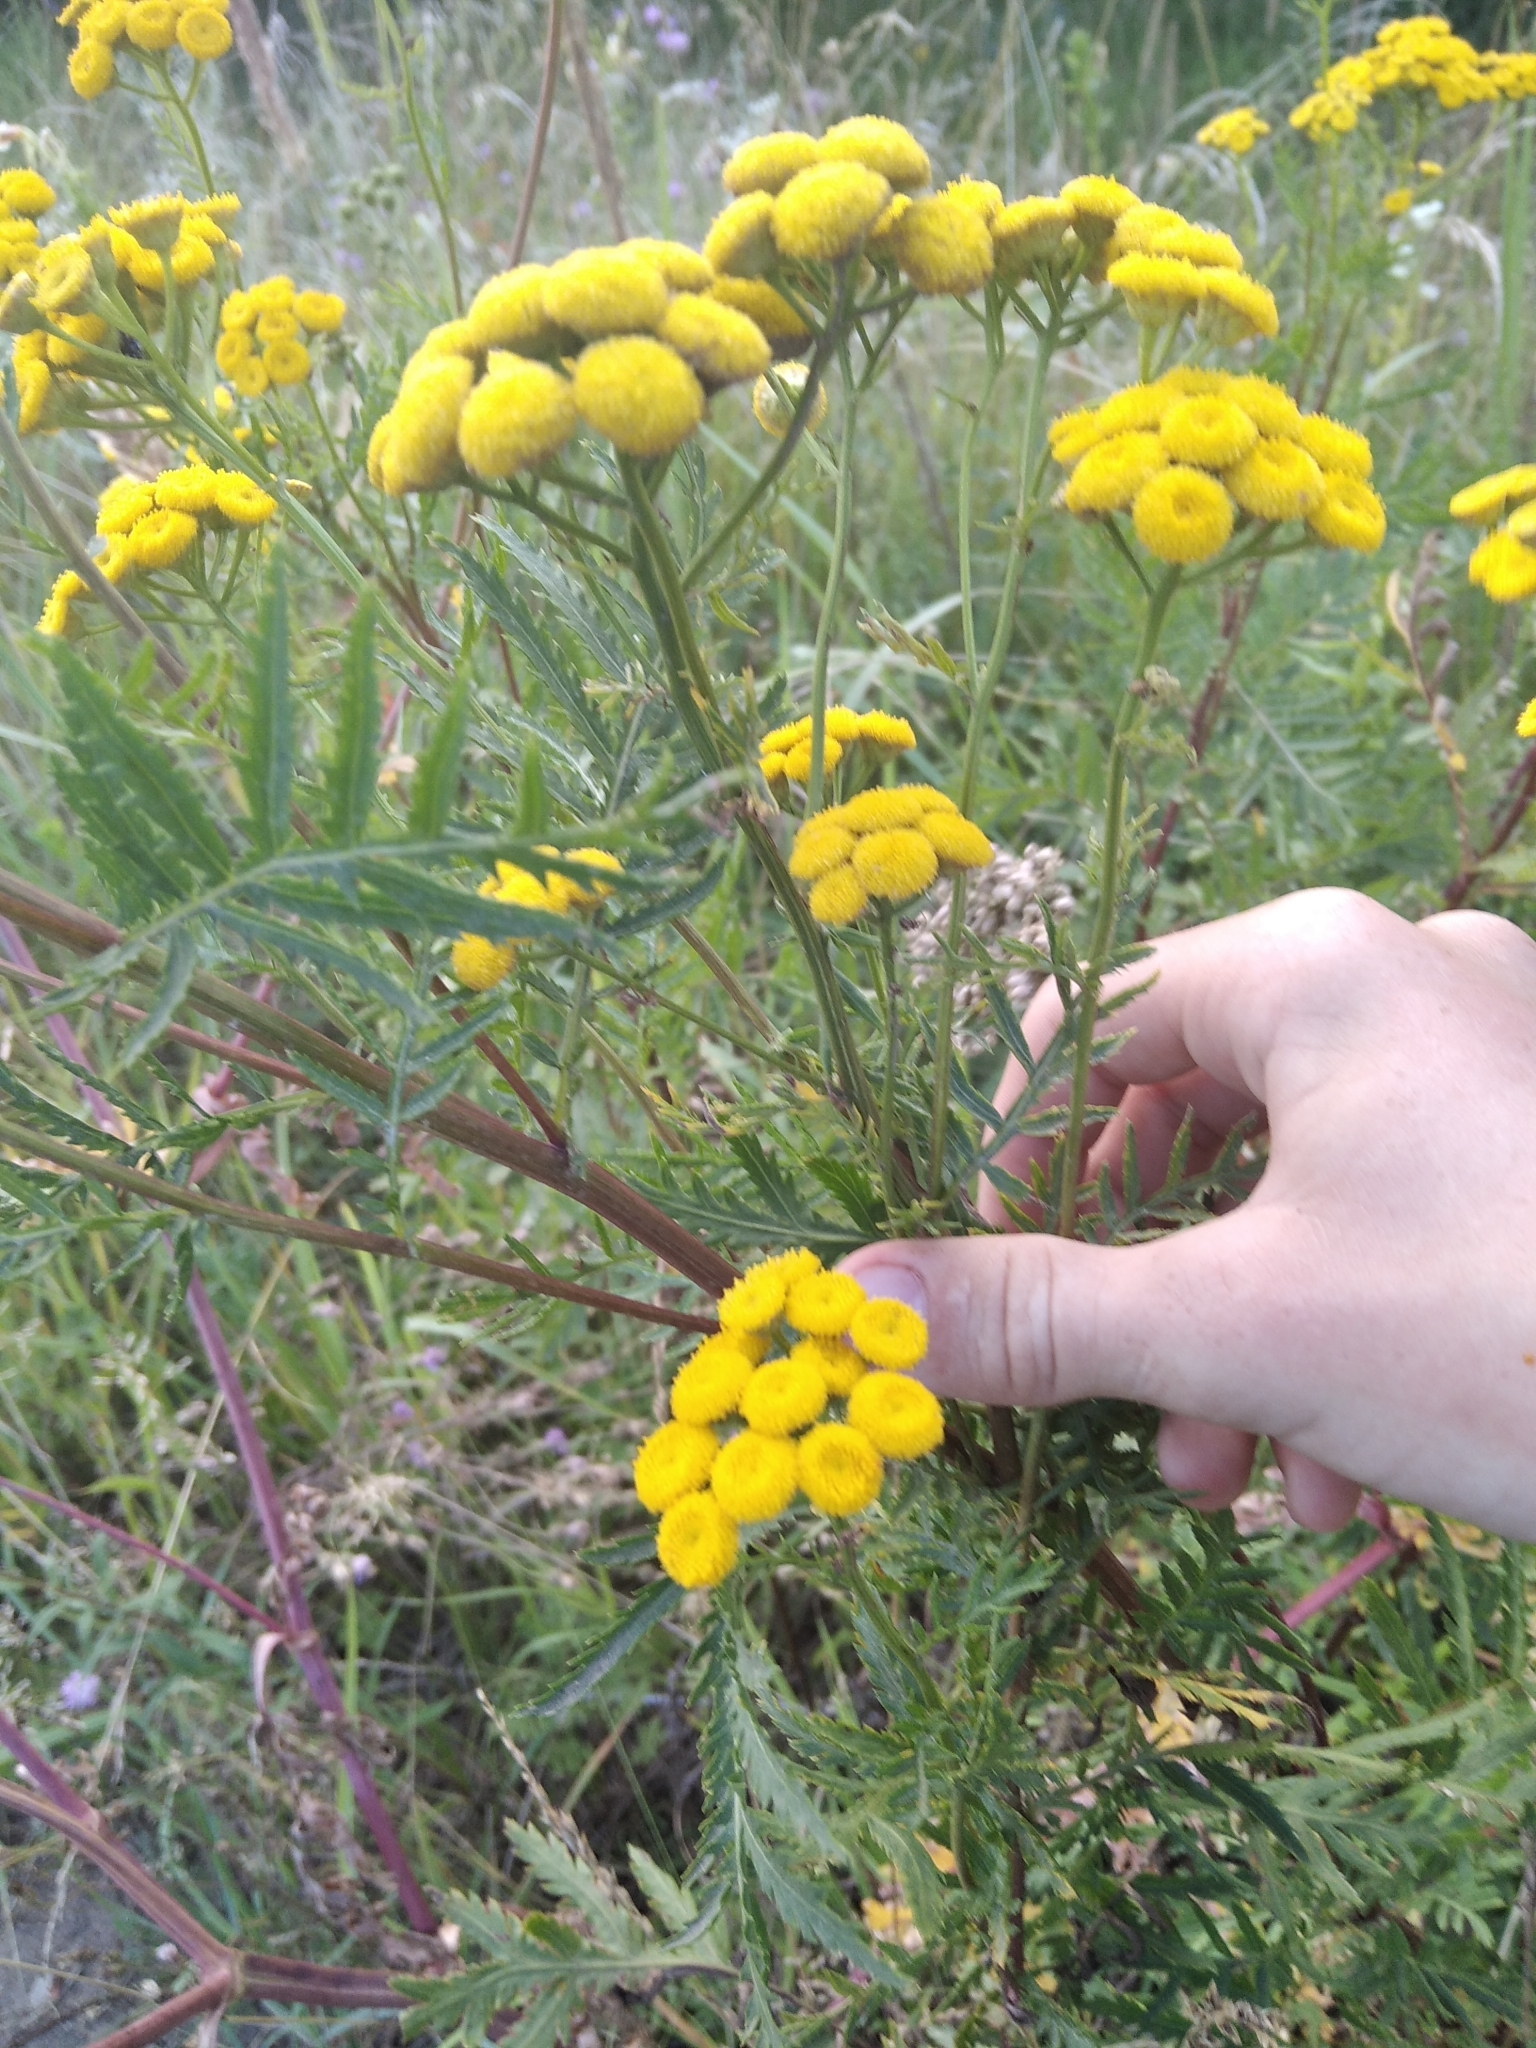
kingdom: Plantae
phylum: Tracheophyta
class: Magnoliopsida
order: Asterales
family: Asteraceae
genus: Tanacetum
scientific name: Tanacetum vulgare
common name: Common tansy
